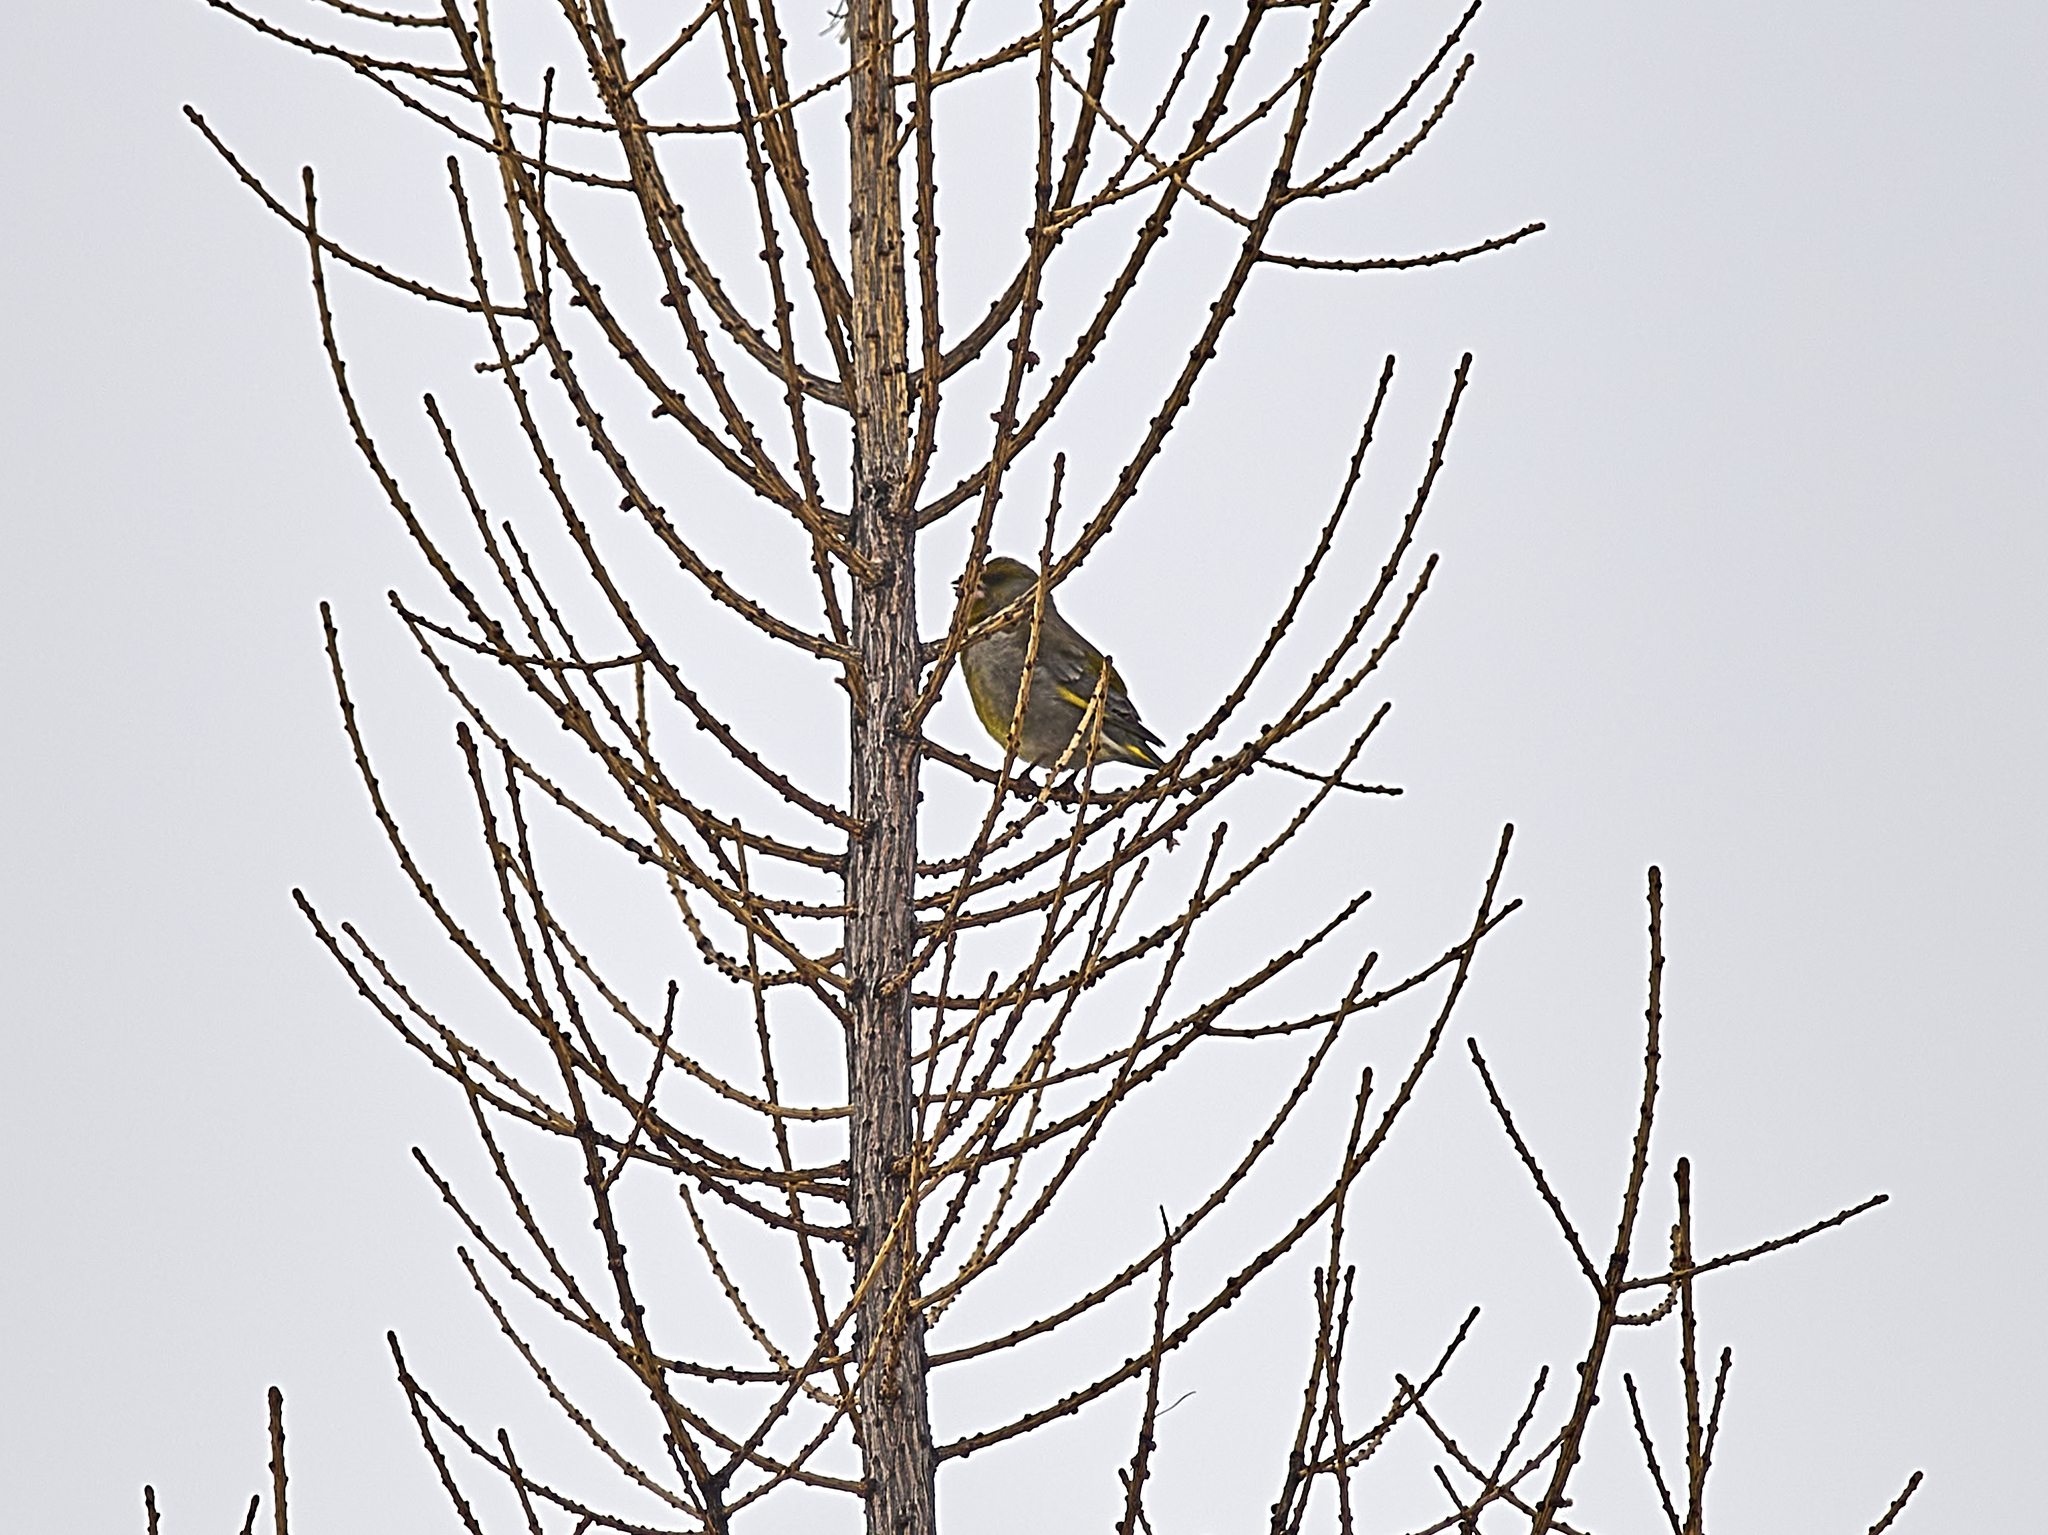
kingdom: Plantae
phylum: Tracheophyta
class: Liliopsida
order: Poales
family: Poaceae
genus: Chloris
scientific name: Chloris chloris
